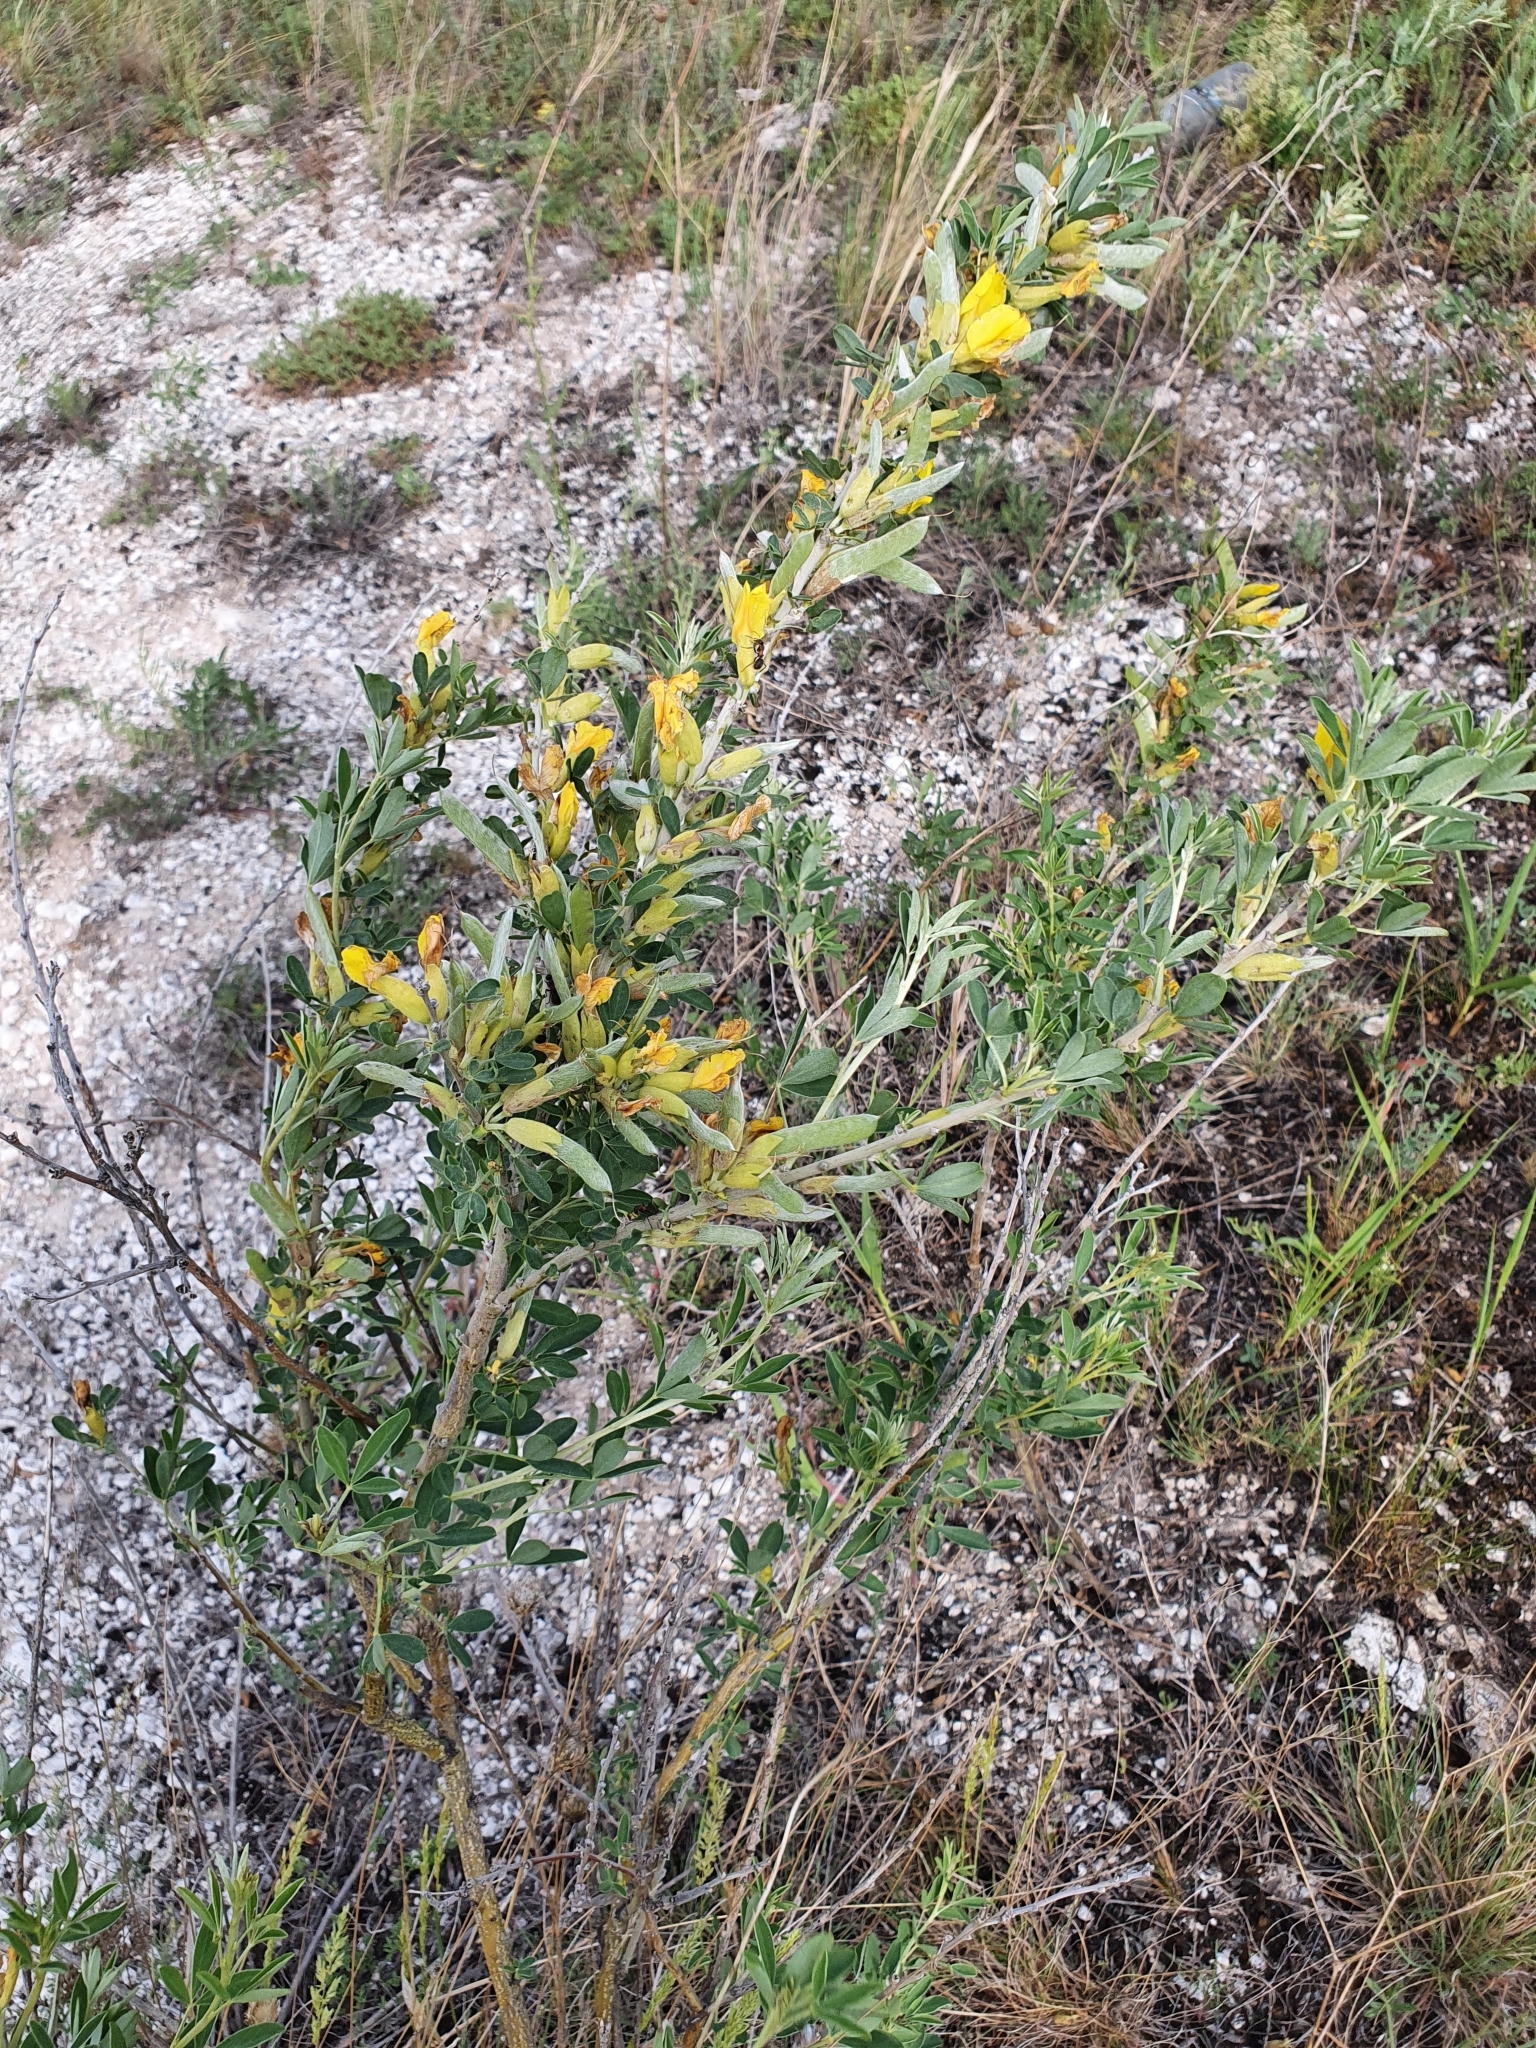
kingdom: Plantae
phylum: Tracheophyta
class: Magnoliopsida
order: Fabales
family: Fabaceae
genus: Chamaecytisus
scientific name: Chamaecytisus ruthenicus
